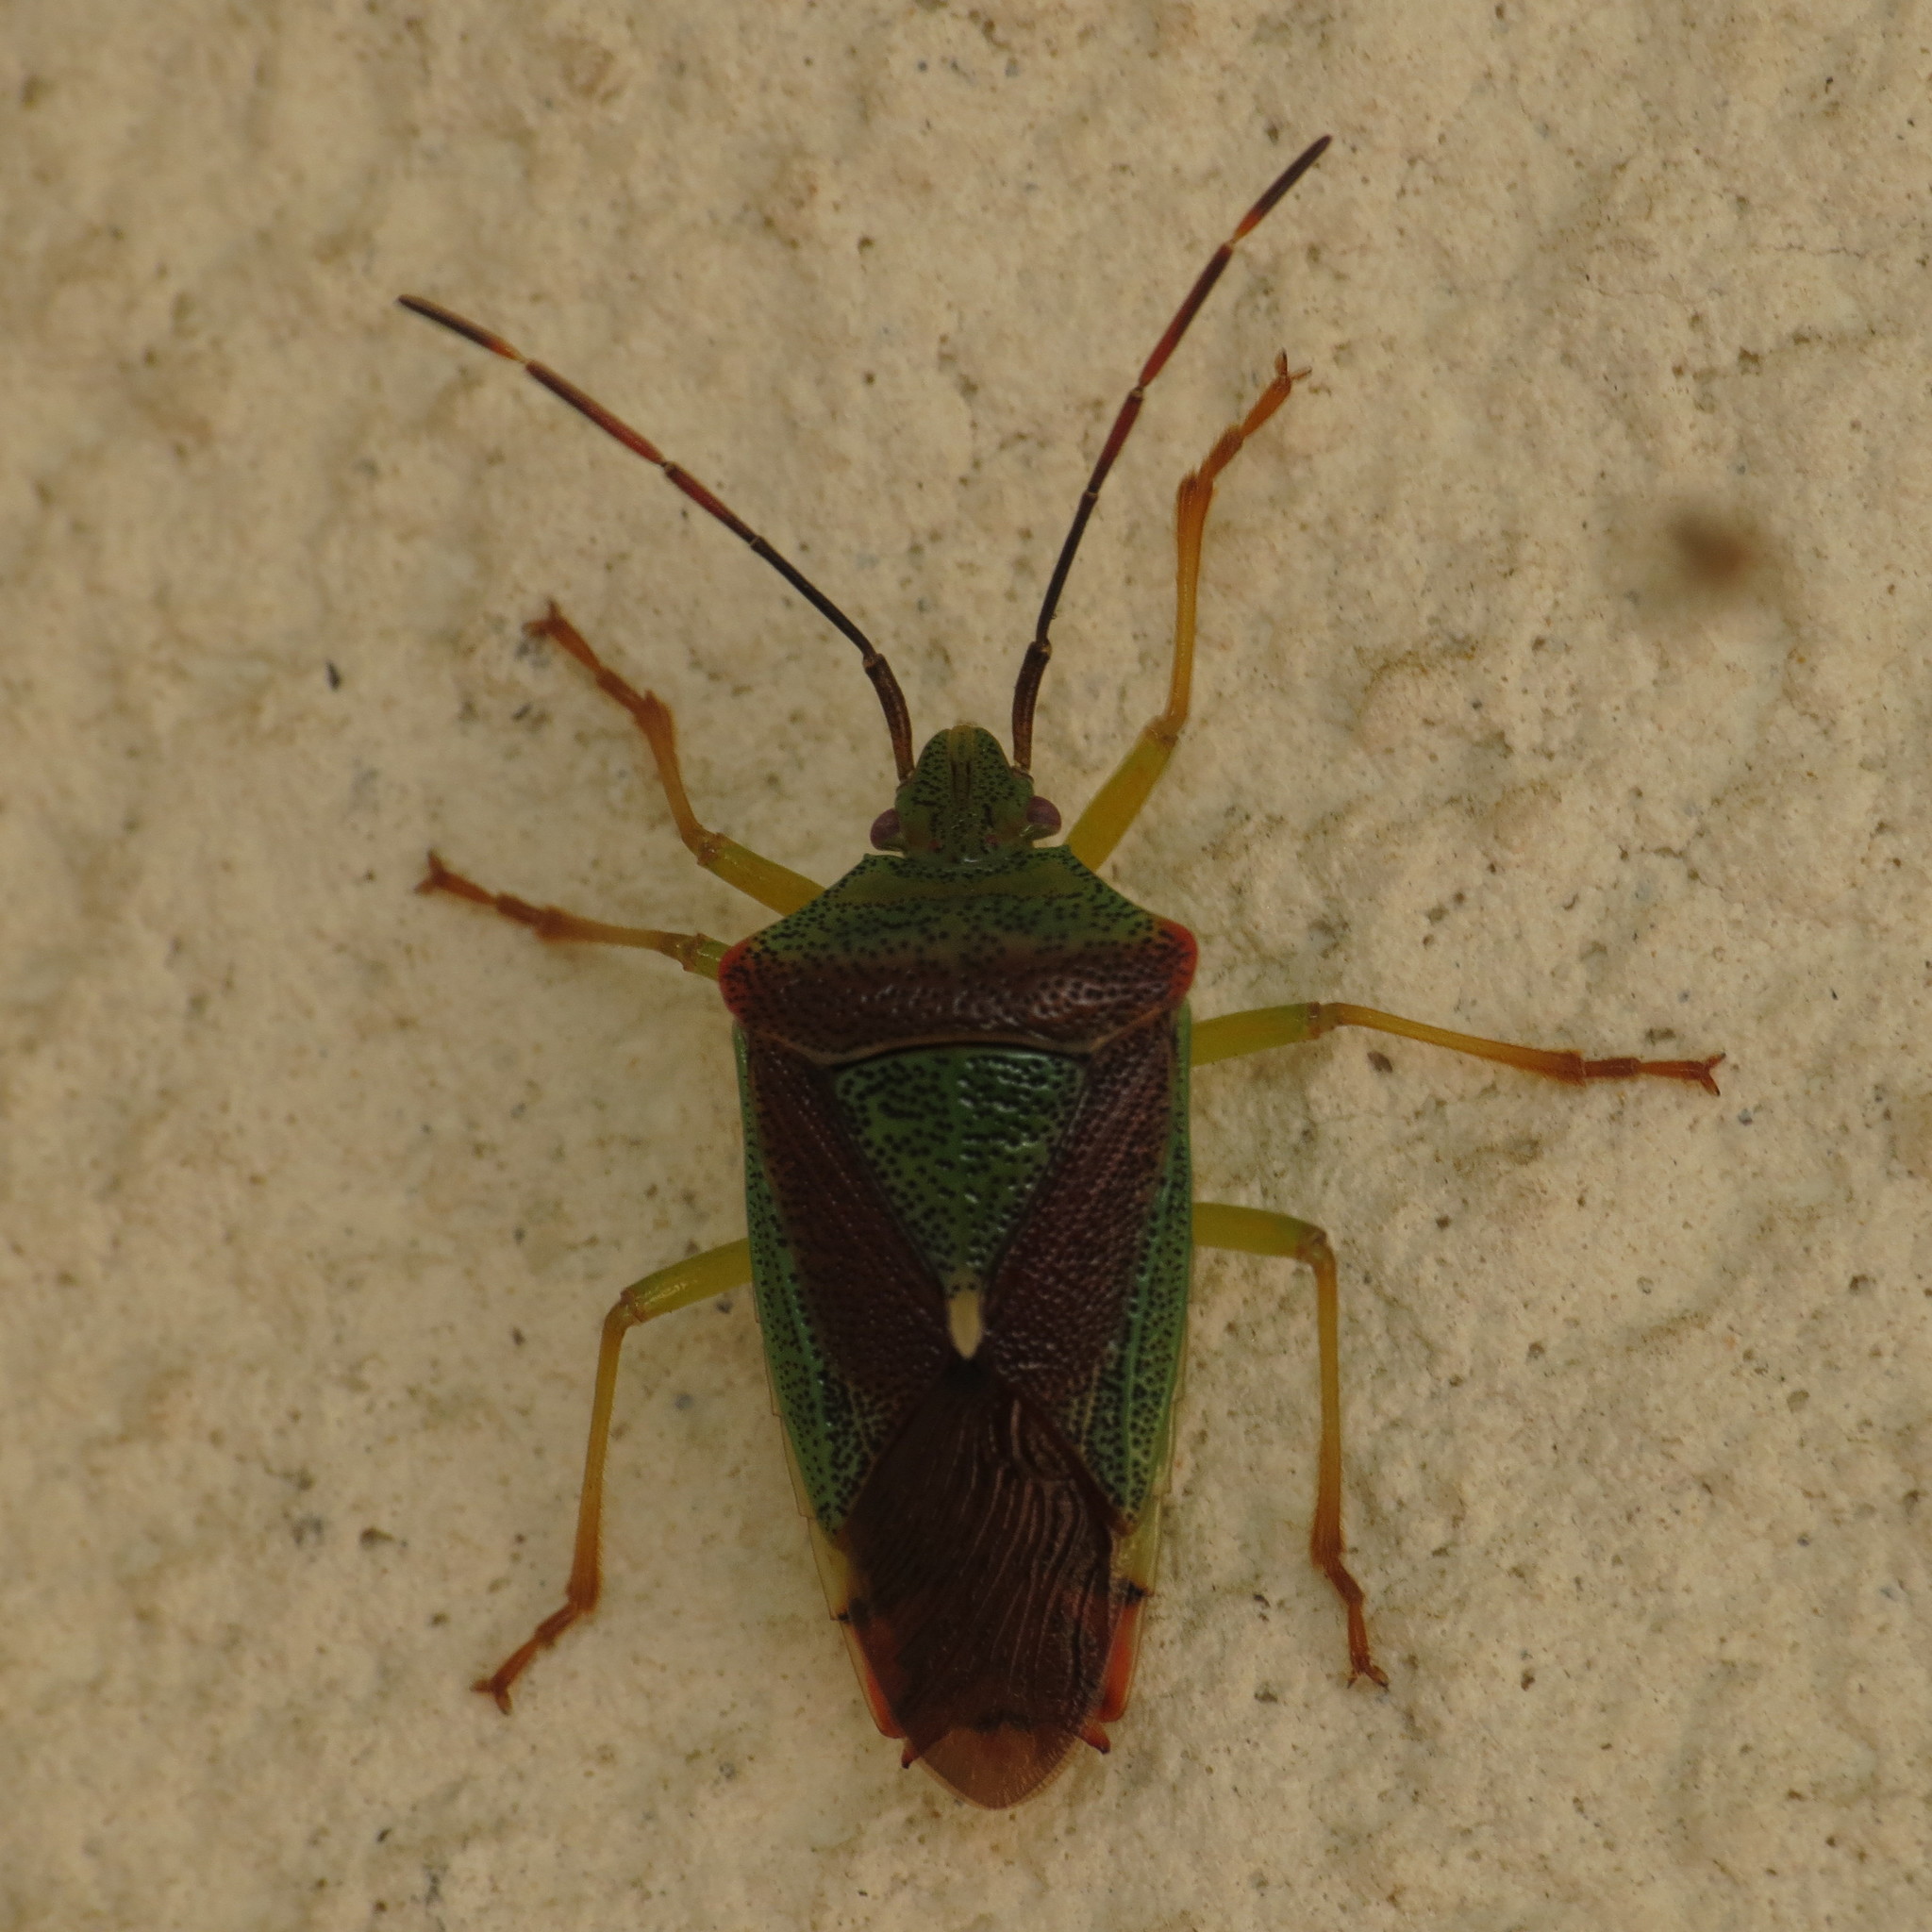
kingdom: Animalia
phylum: Arthropoda
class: Insecta
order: Hemiptera
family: Acanthosomatidae
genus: Acanthosoma
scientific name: Acanthosoma spinicolle
